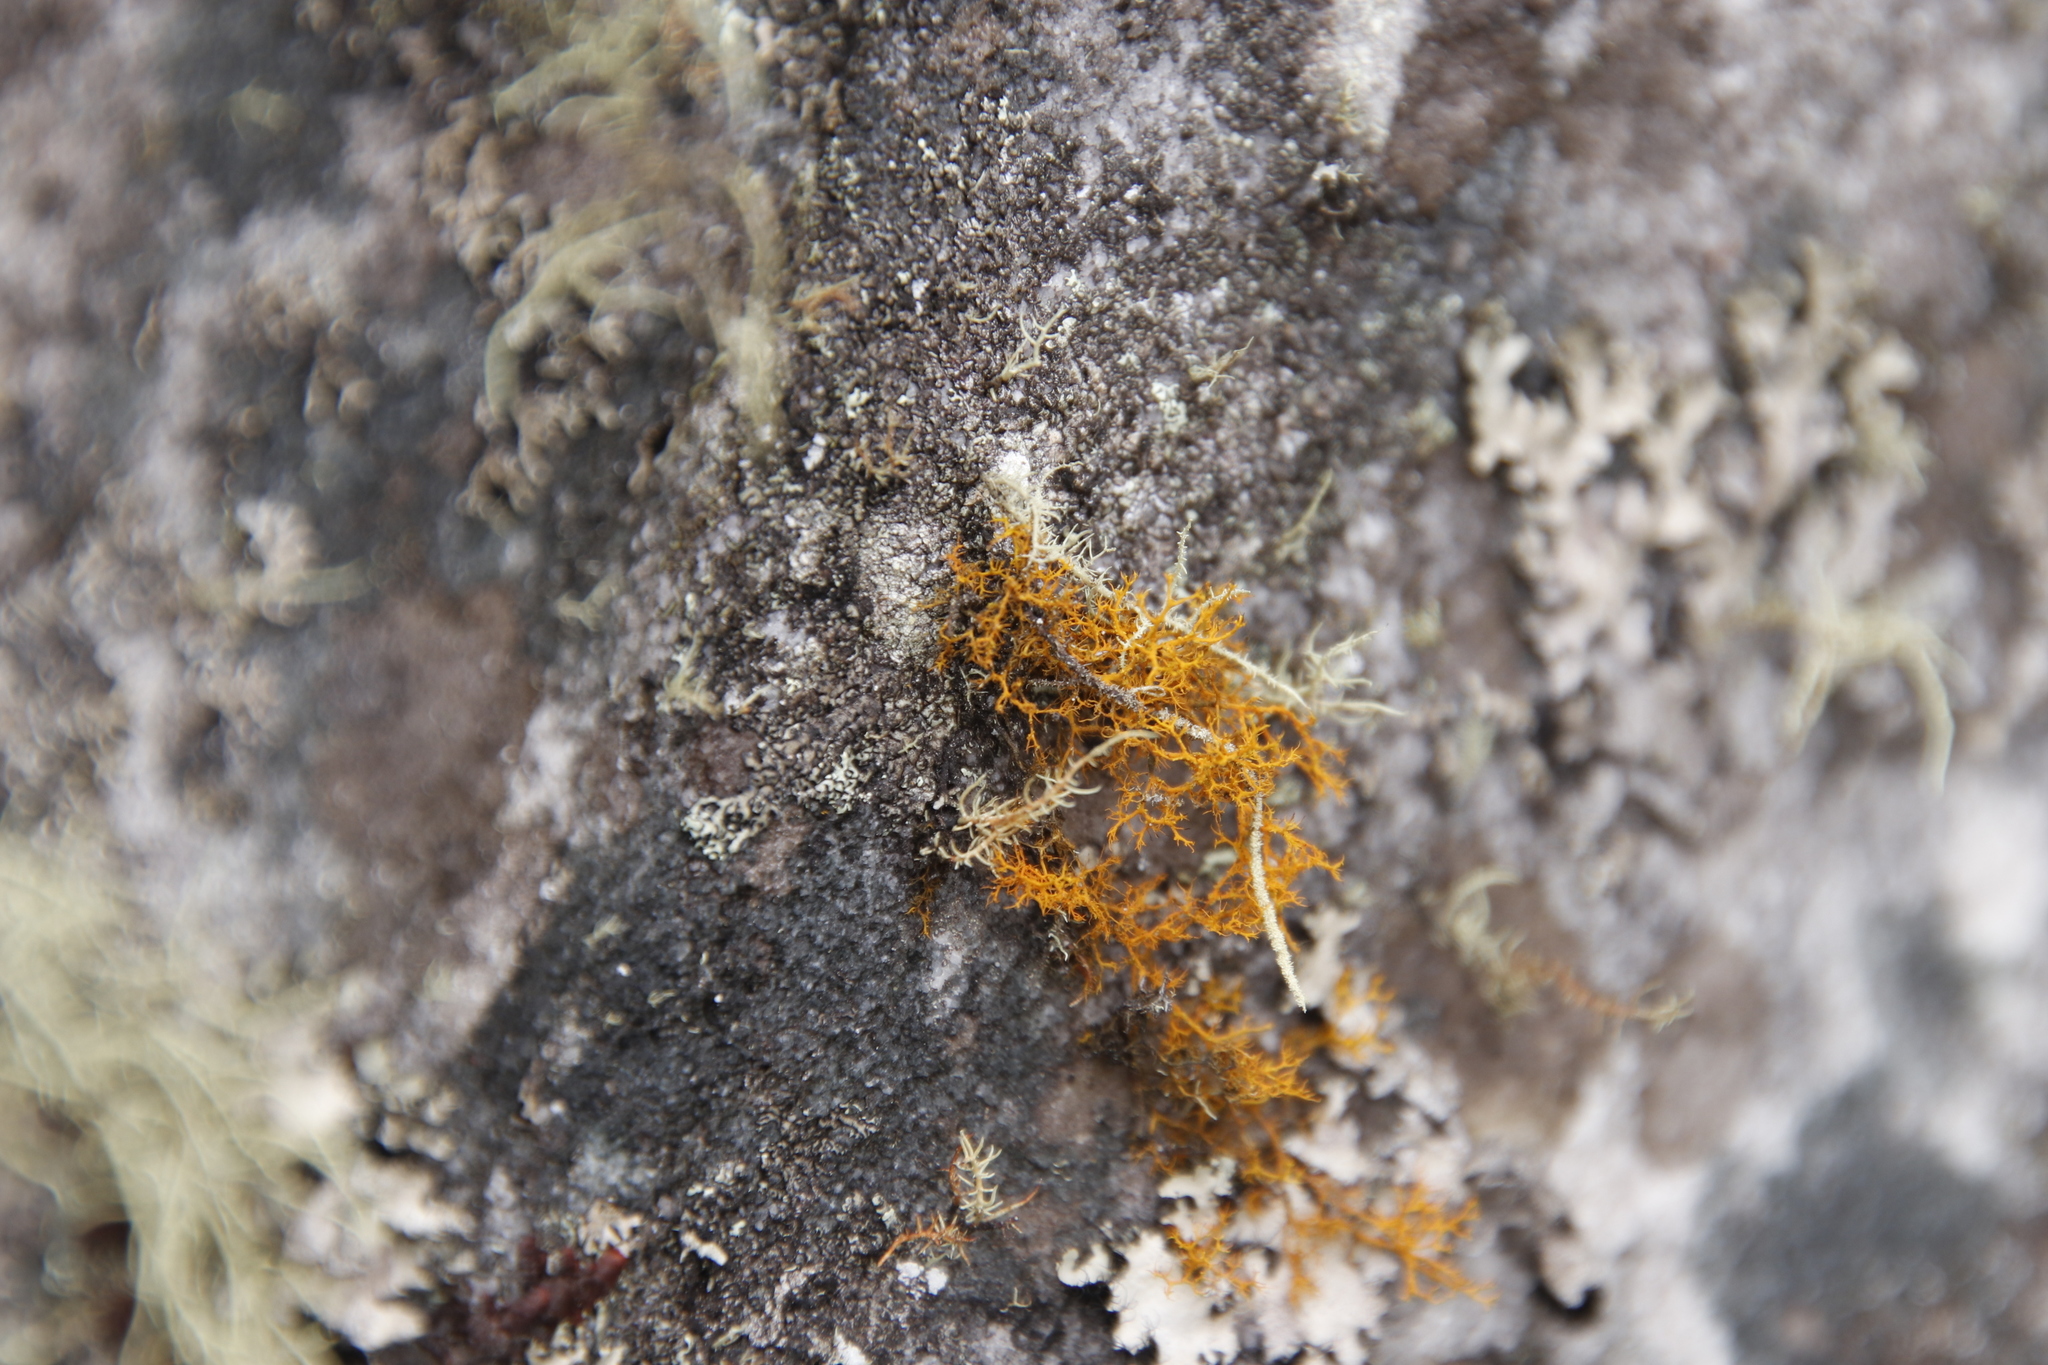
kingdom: Fungi
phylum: Ascomycota
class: Lecanoromycetes
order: Teloschistales
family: Teloschistaceae
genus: Teloschistes
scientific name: Teloschistes flavicans
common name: Golden hair-lichen
